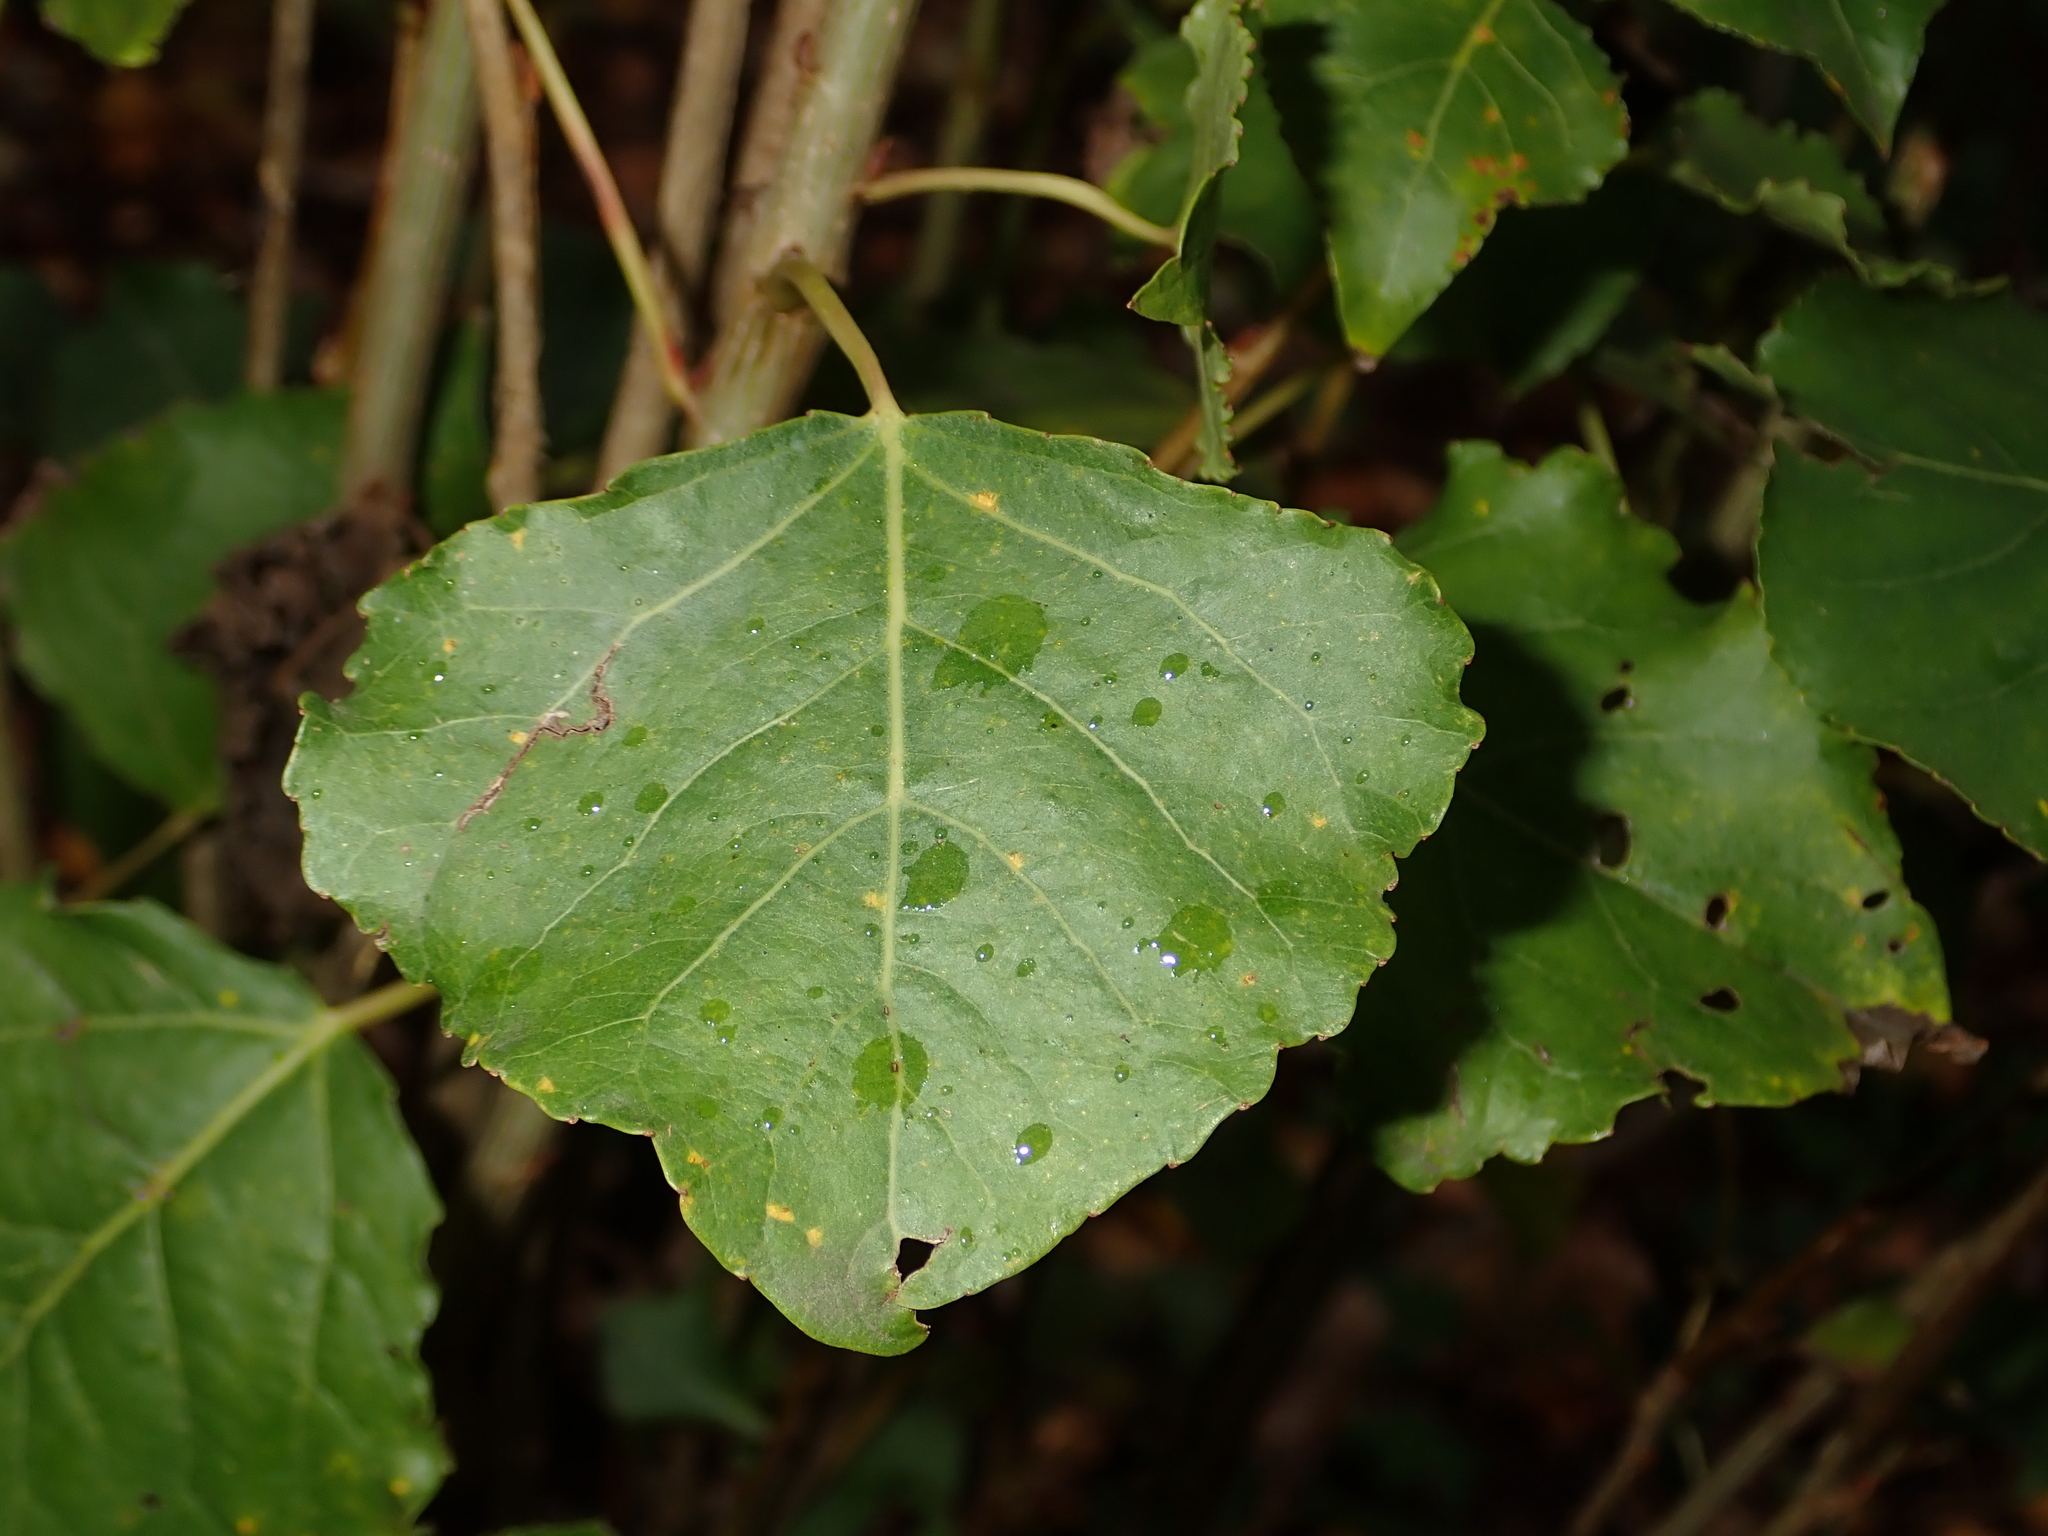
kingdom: Plantae
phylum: Tracheophyta
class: Magnoliopsida
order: Malpighiales
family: Salicaceae
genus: Populus
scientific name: Populus nigra
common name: Black poplar
